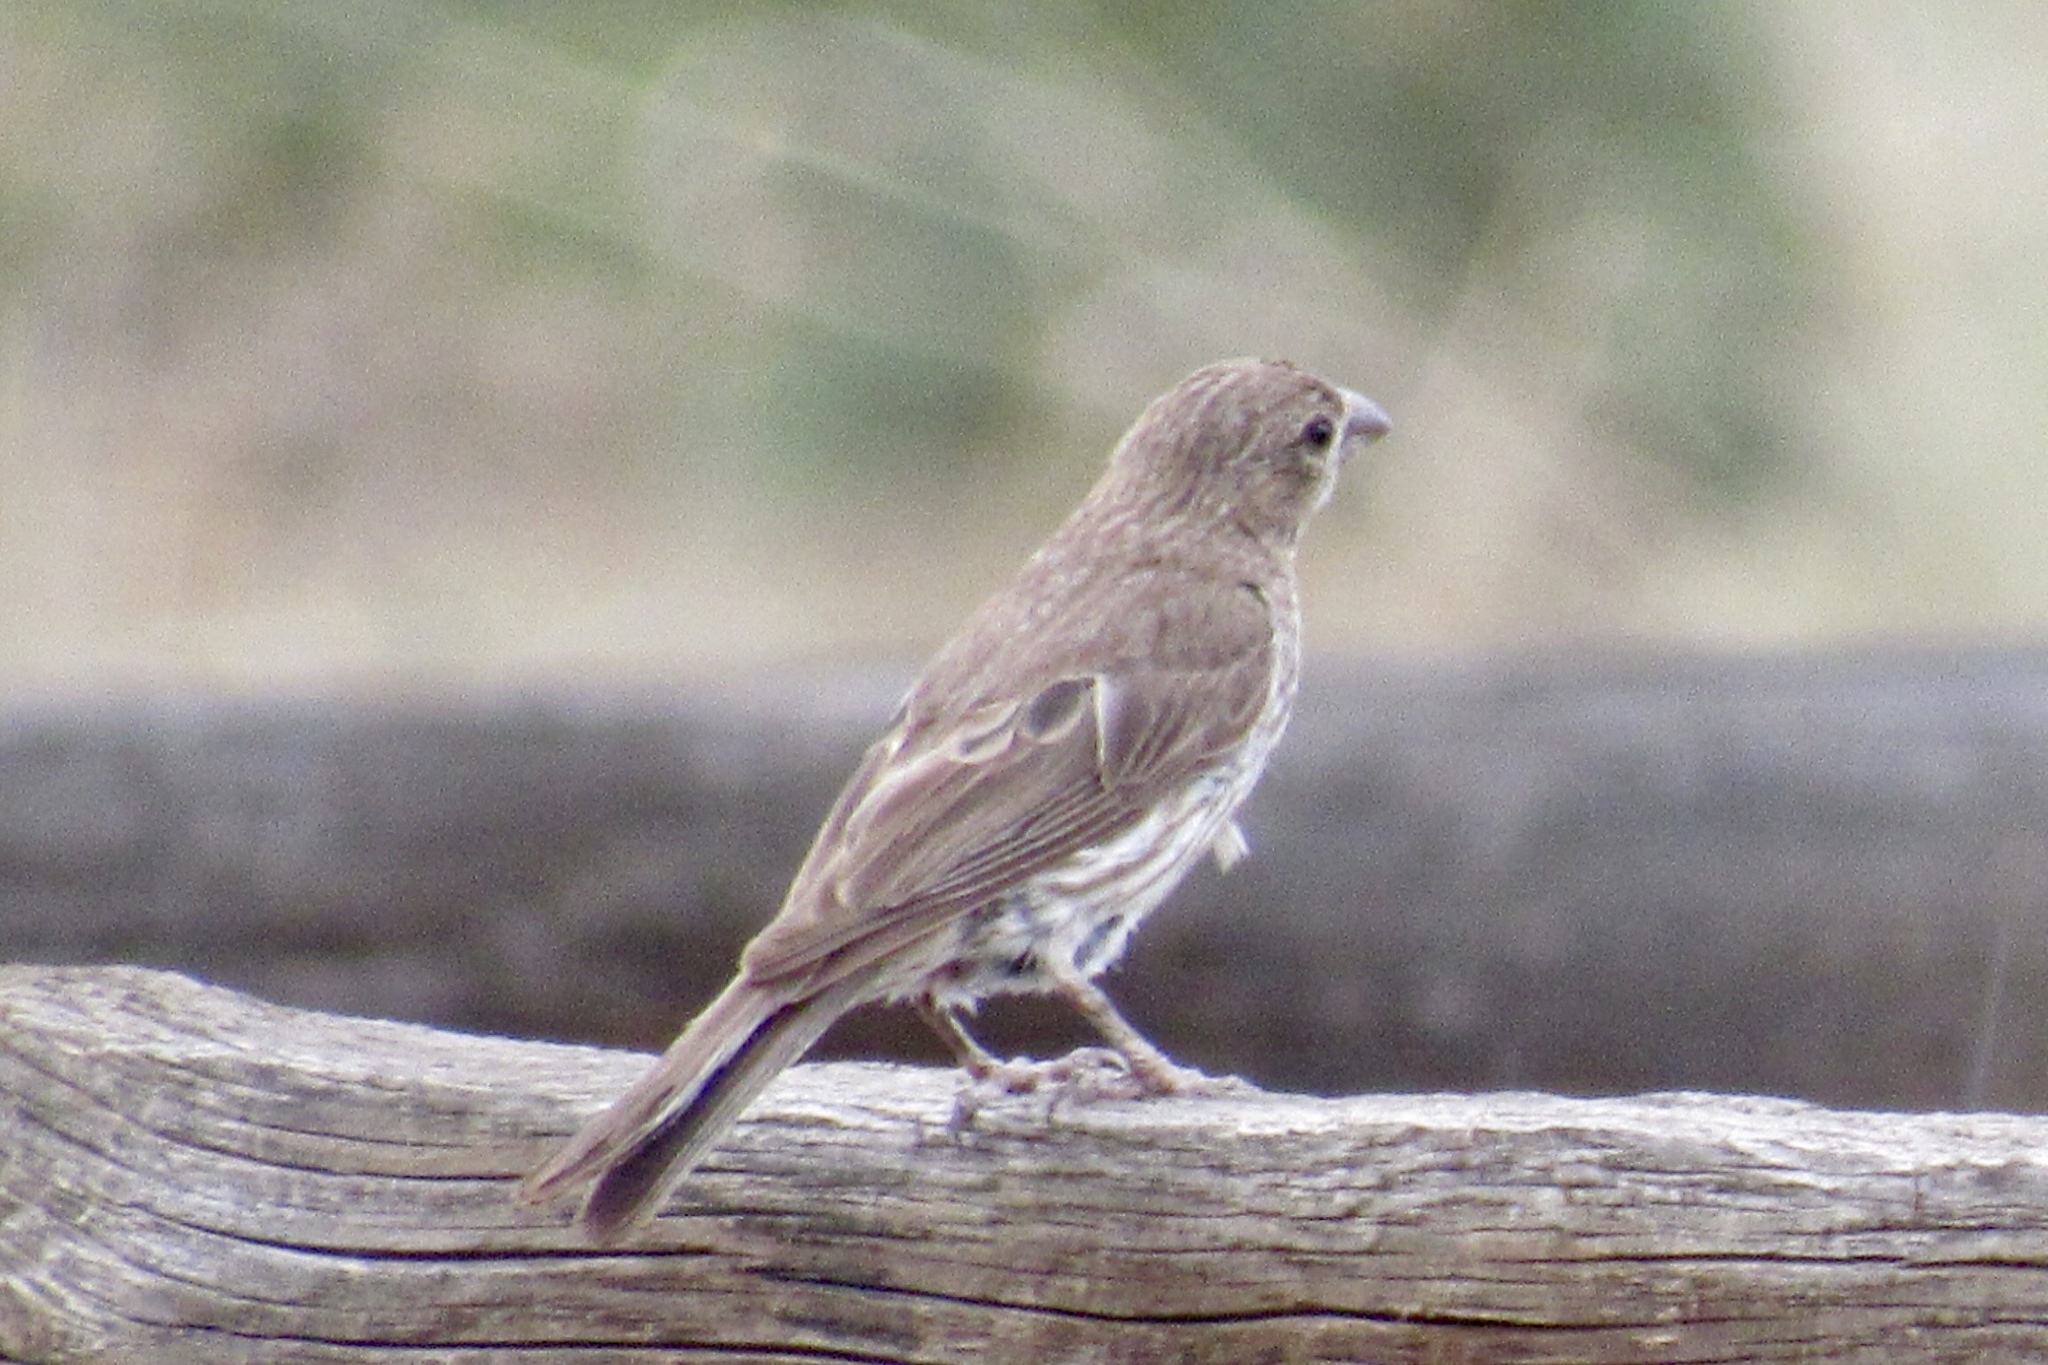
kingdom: Animalia
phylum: Chordata
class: Aves
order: Passeriformes
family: Fringillidae
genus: Haemorhous
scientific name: Haemorhous mexicanus
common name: House finch
